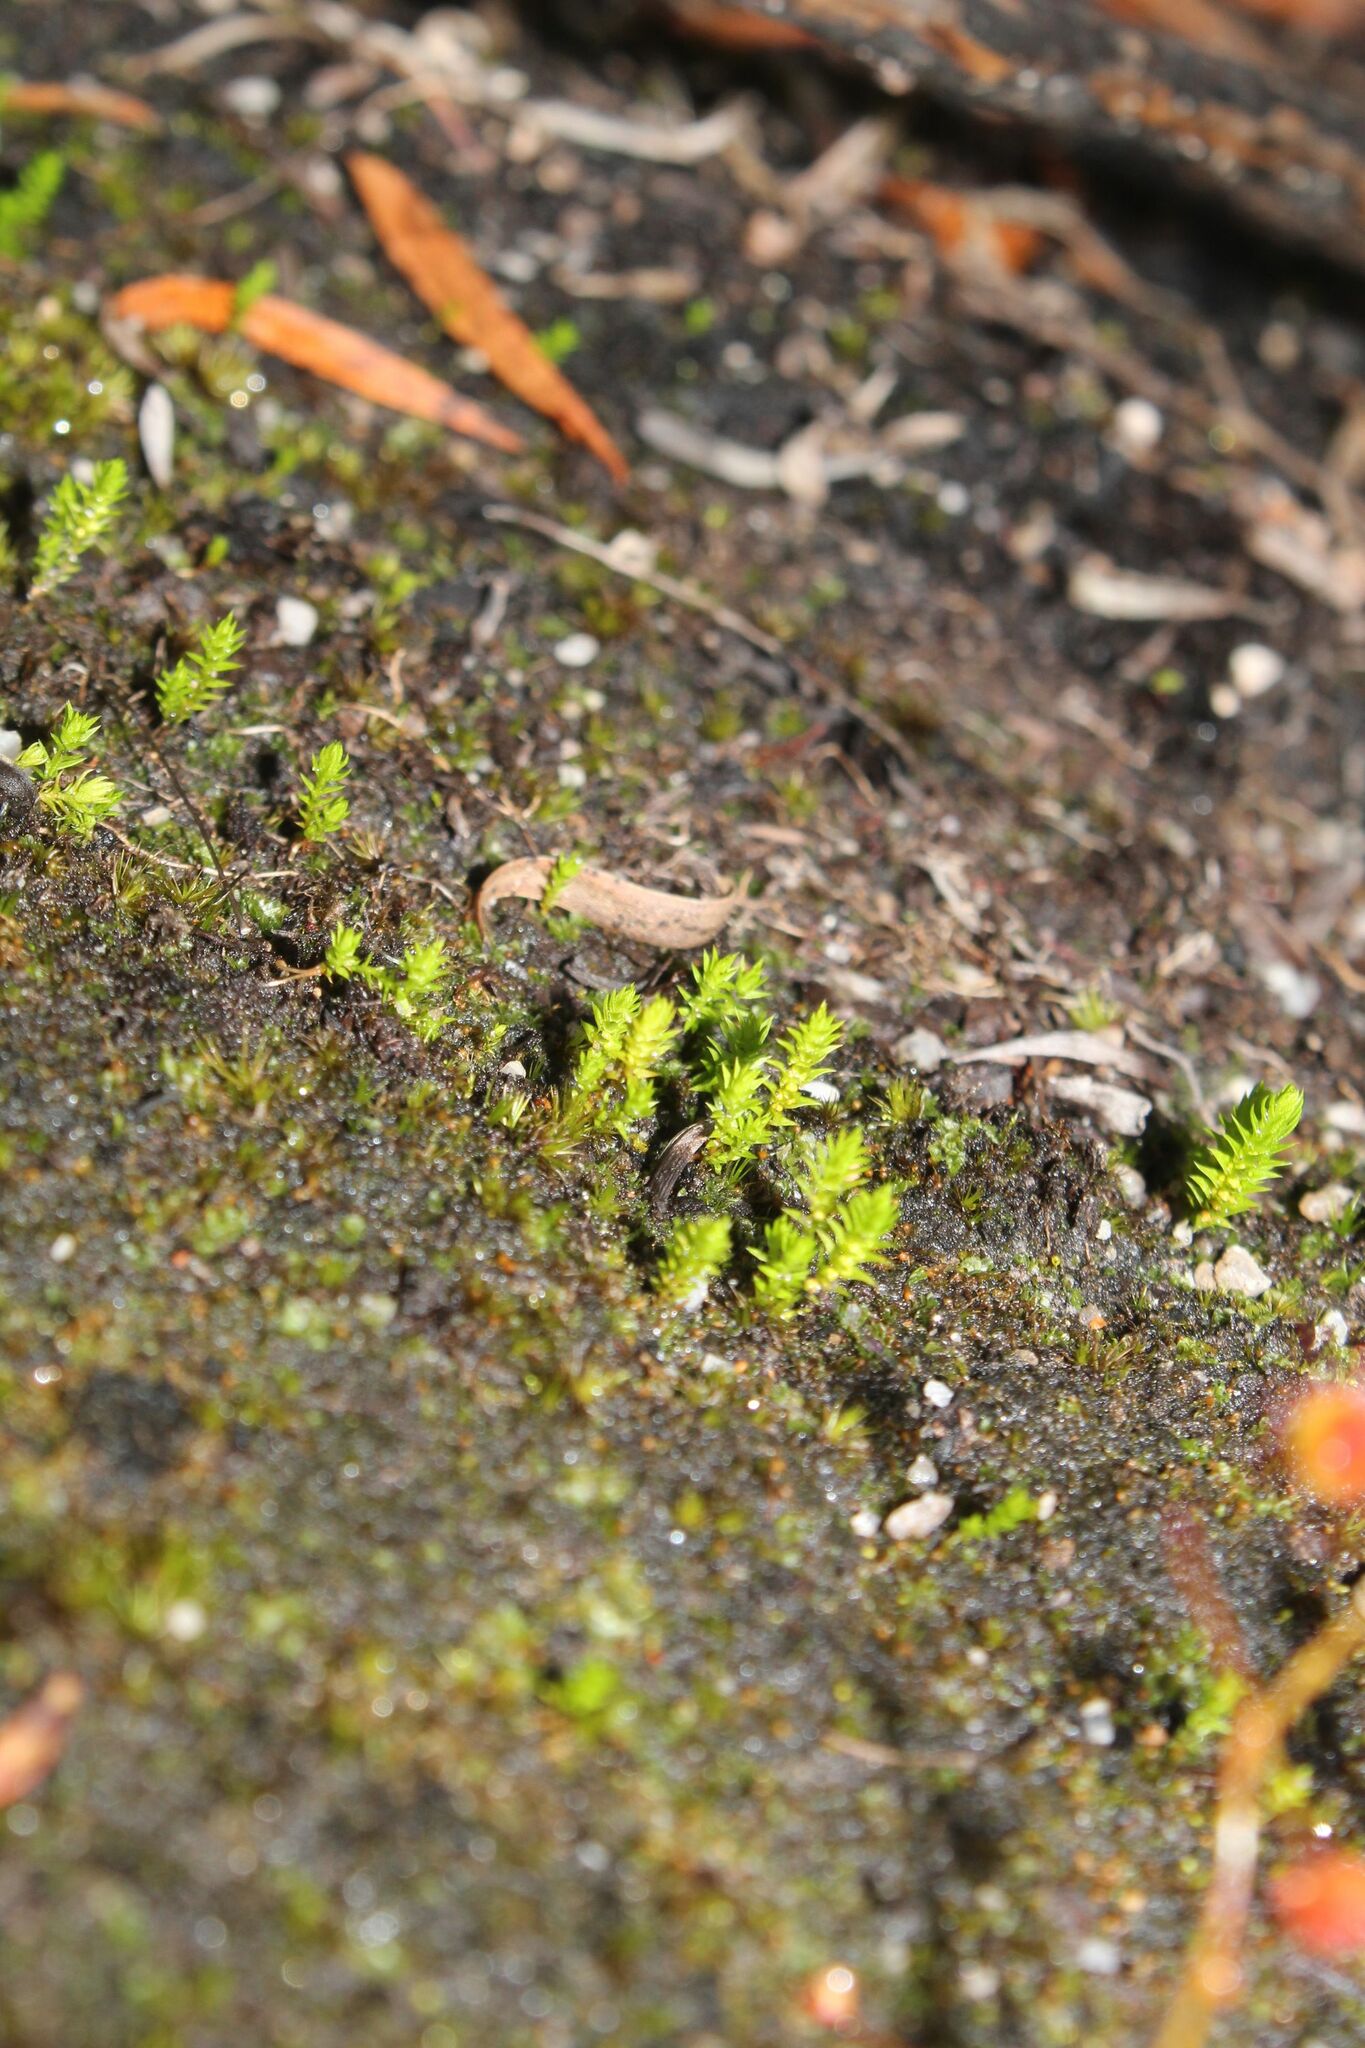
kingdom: Plantae
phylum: Tracheophyta
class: Lycopodiopsida
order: Selaginellales
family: Selaginellaceae
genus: Selaginella
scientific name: Selaginella gracillima
